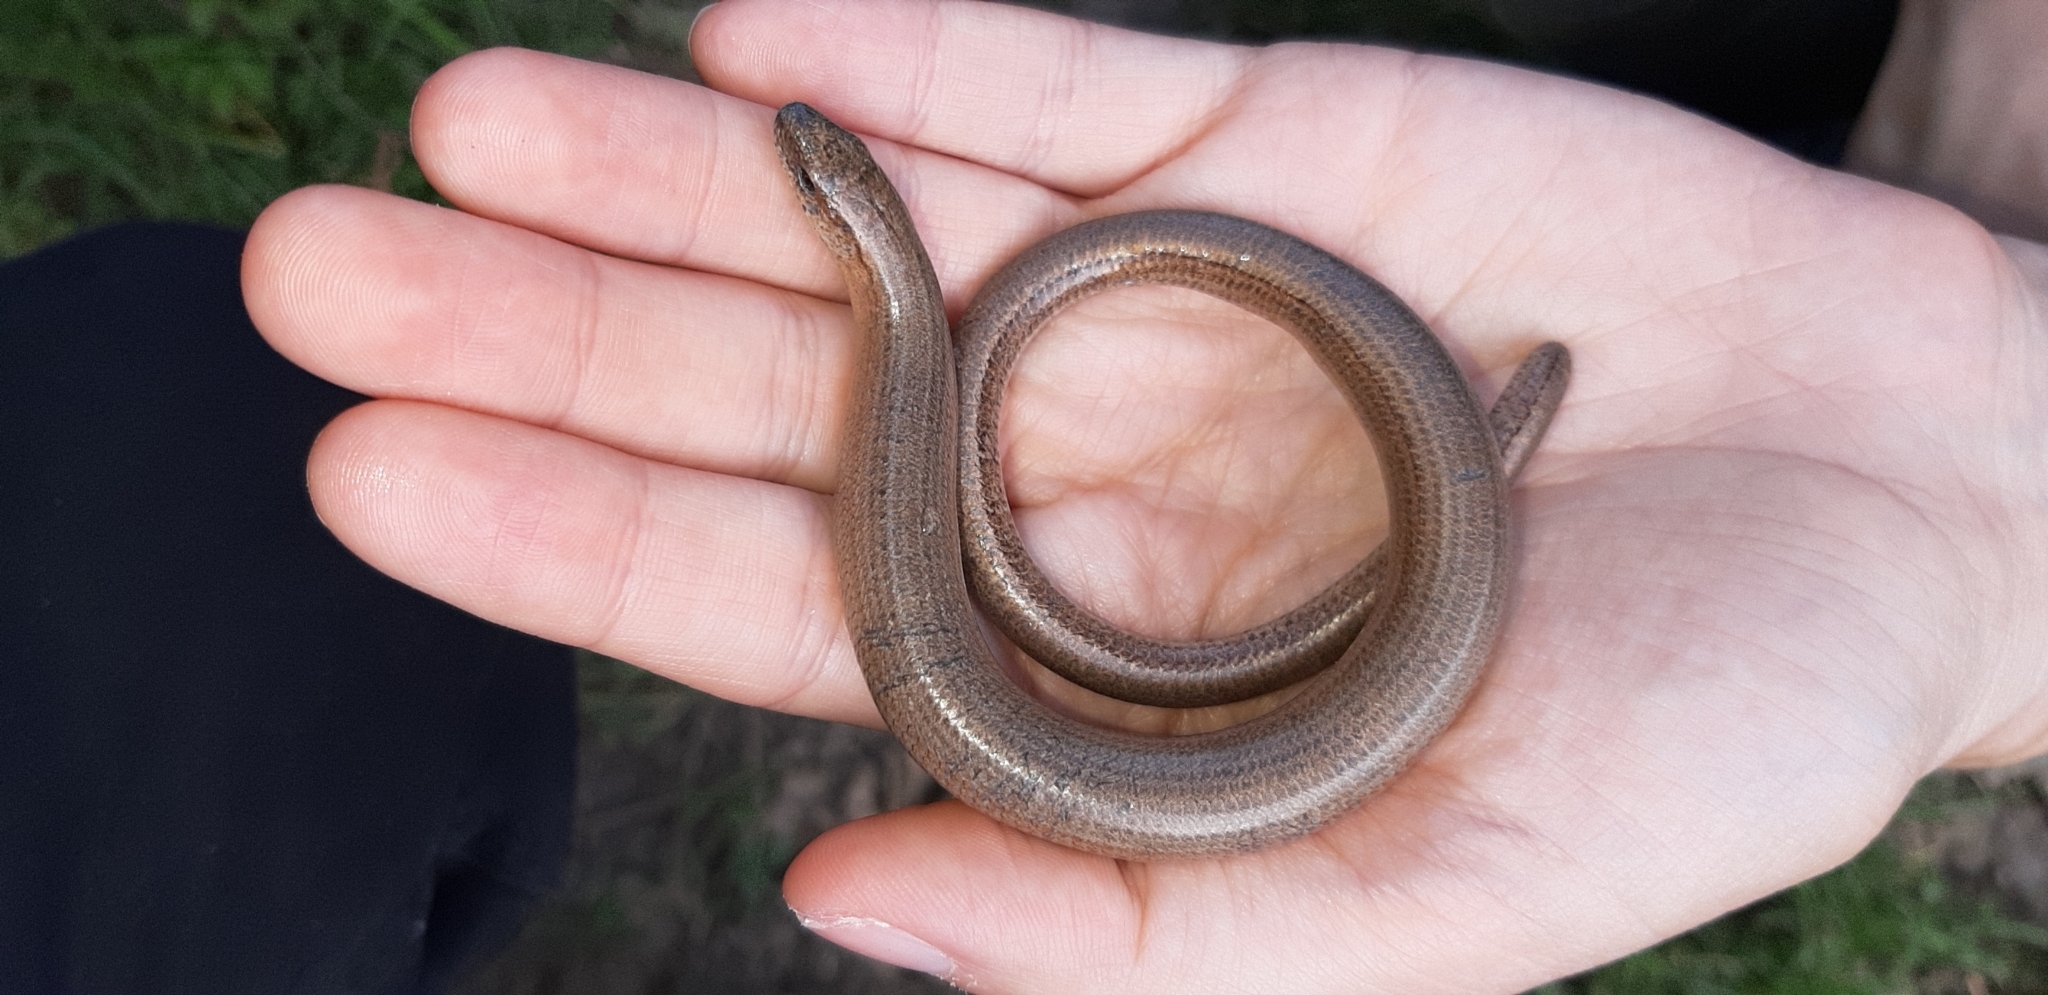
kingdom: Animalia
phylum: Chordata
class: Squamata
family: Anguidae
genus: Anguis
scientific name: Anguis fragilis
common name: Slow worm
